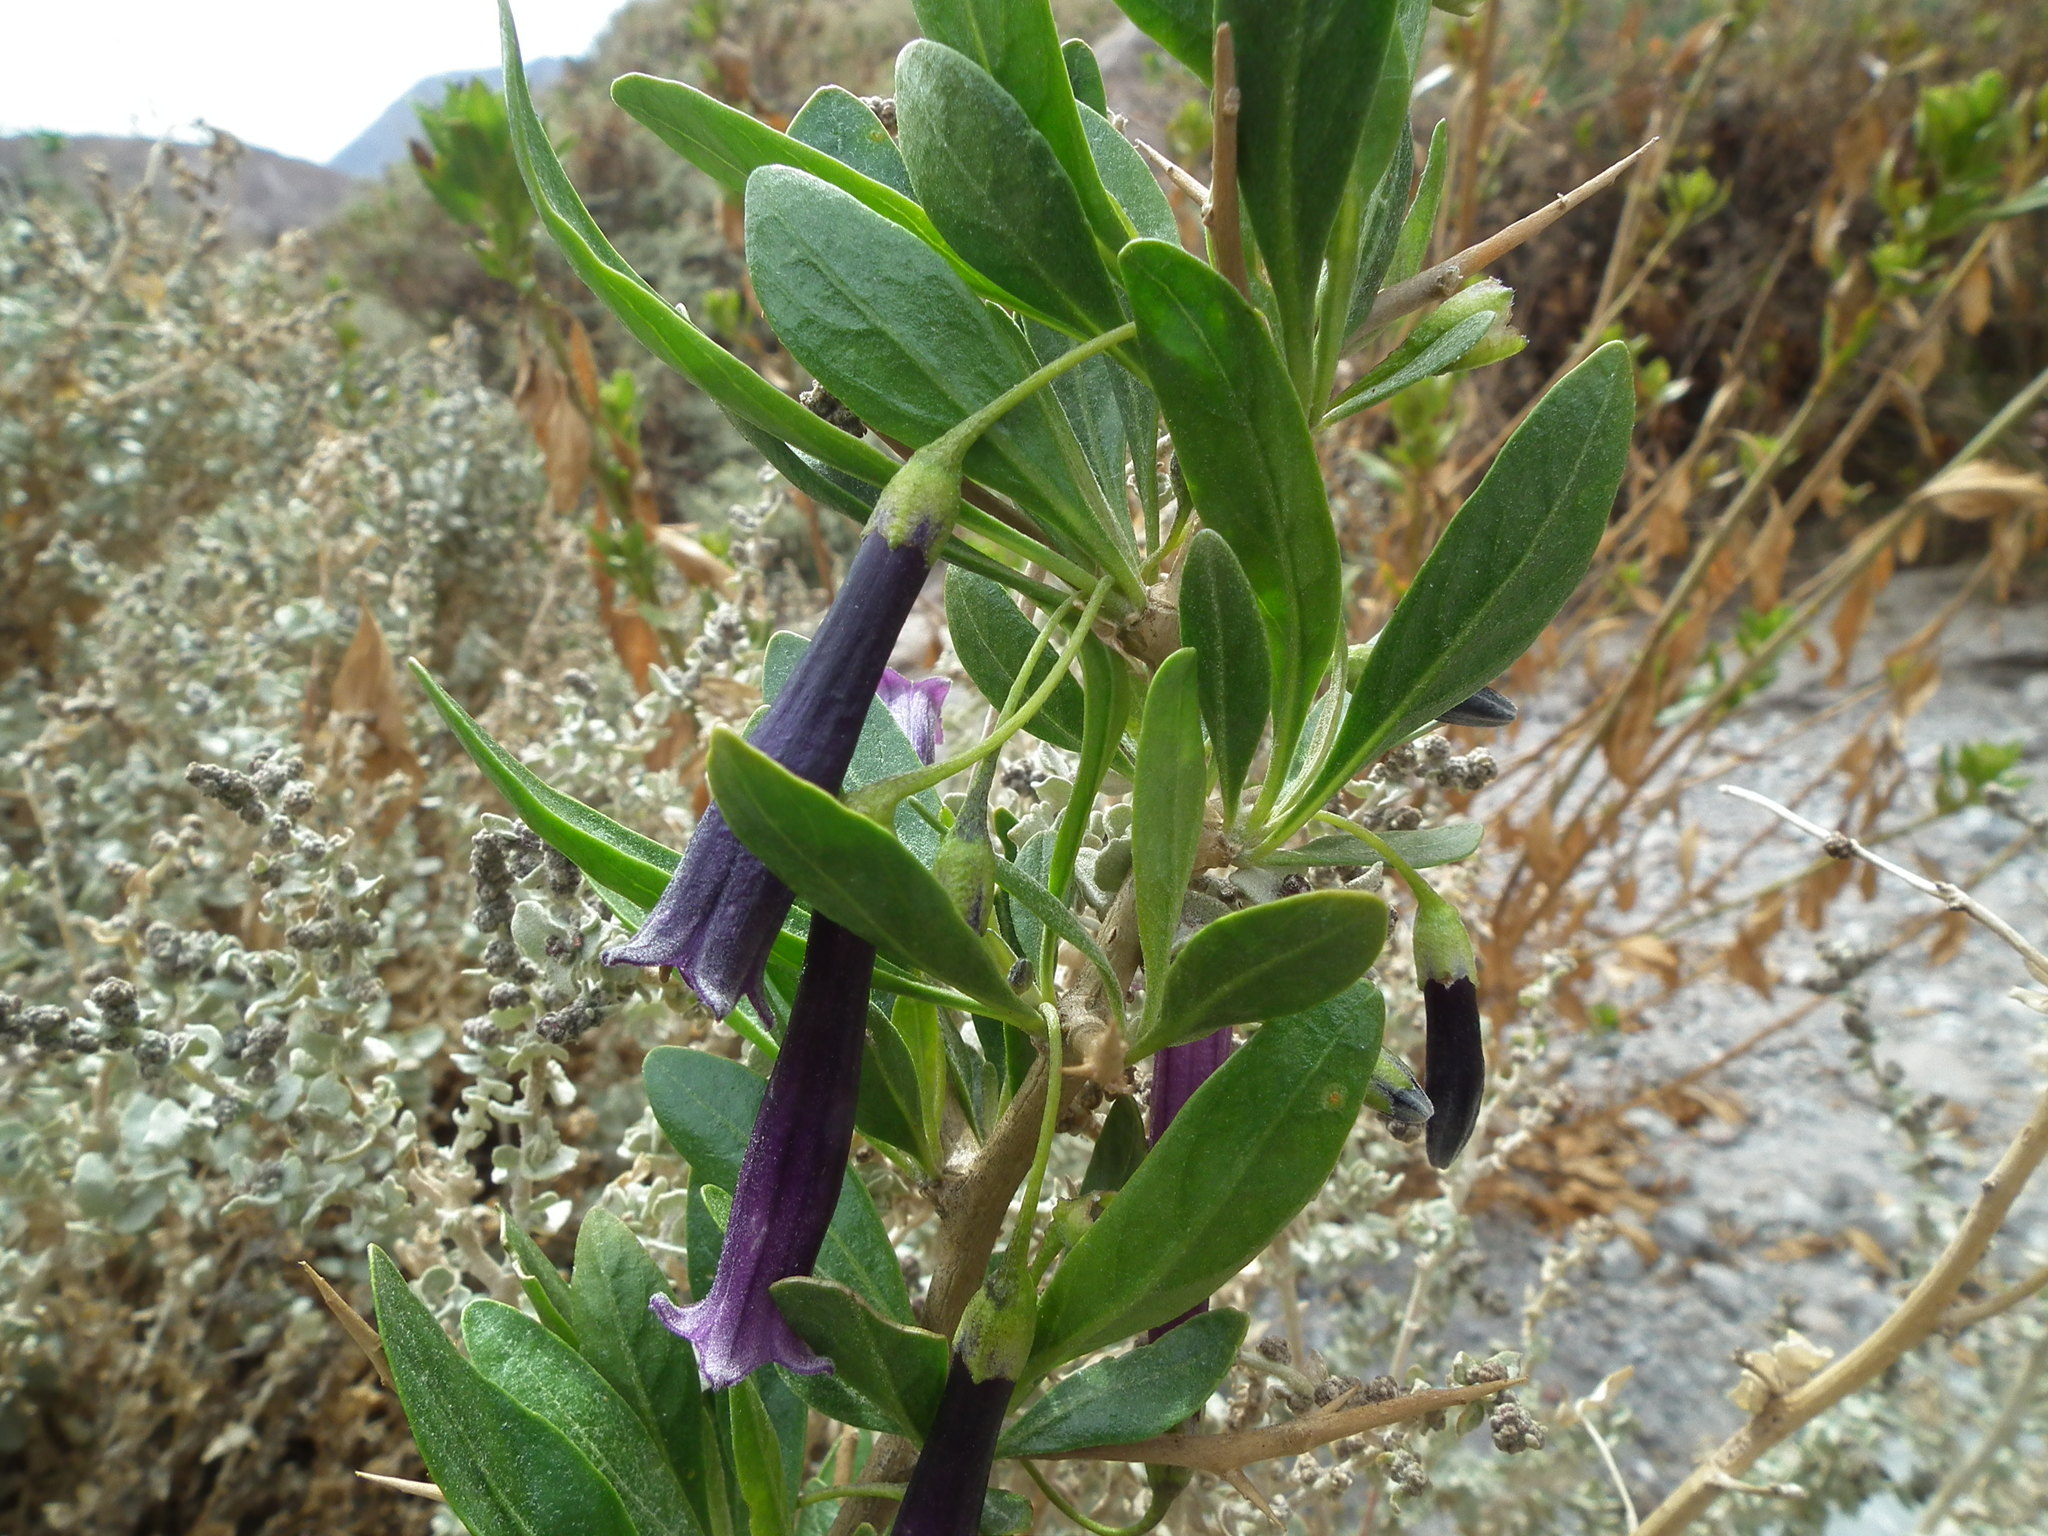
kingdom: Plantae
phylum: Tracheophyta
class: Magnoliopsida
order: Solanales
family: Solanaceae
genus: Dunalia
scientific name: Dunalia spinosa
